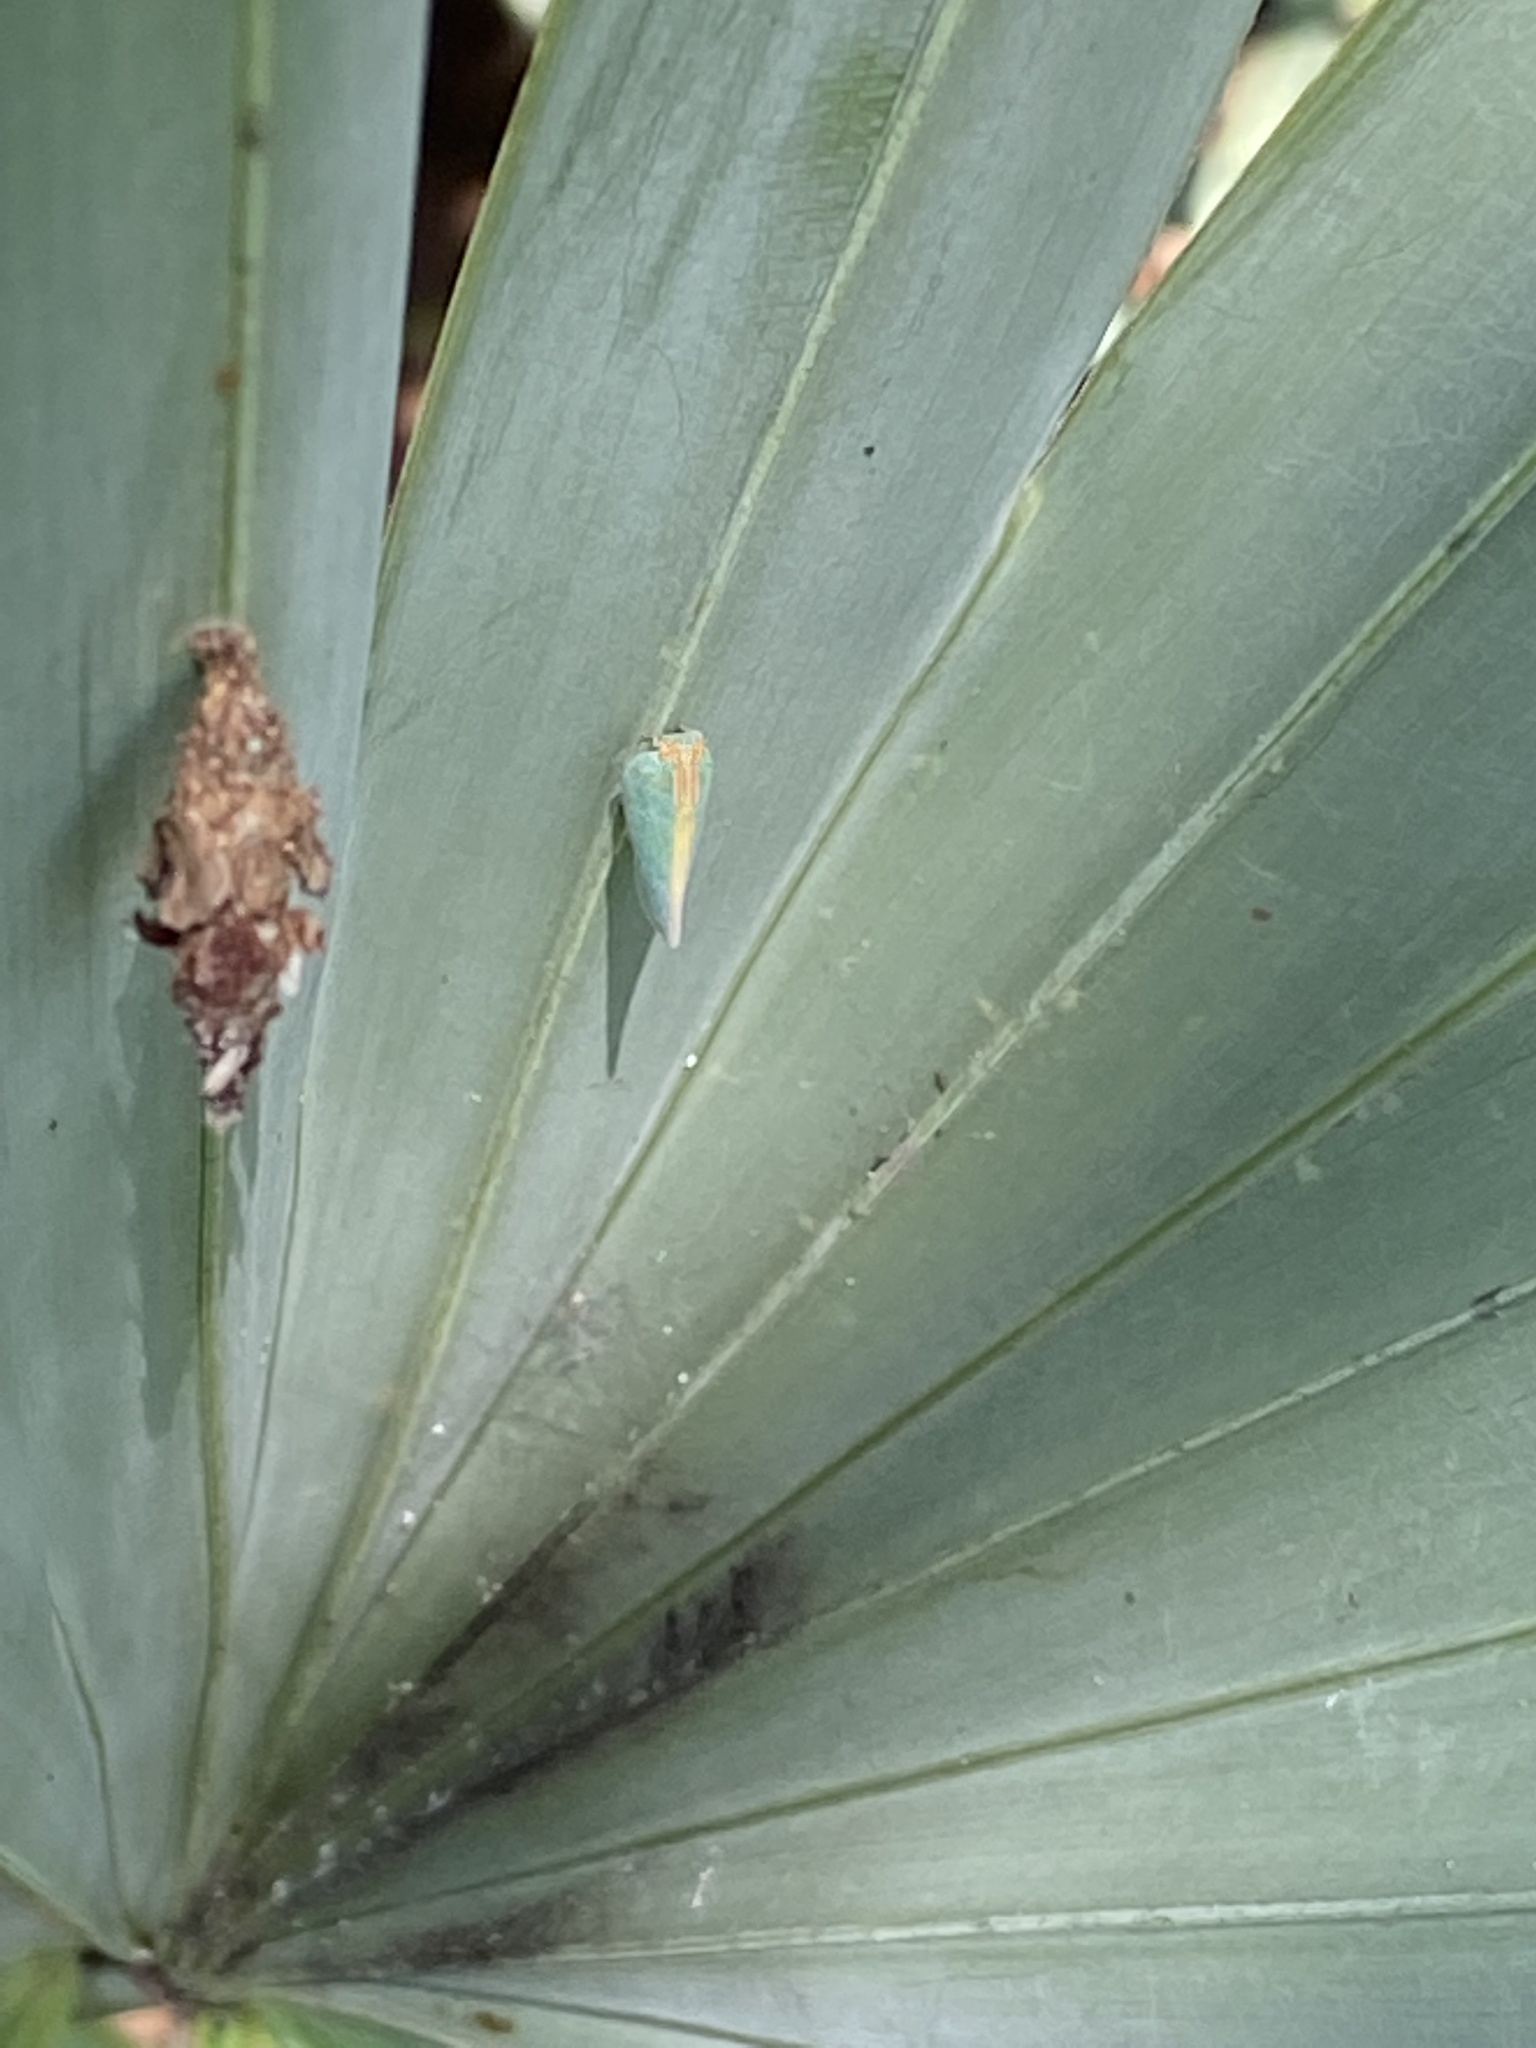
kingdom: Animalia
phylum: Arthropoda
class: Insecta
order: Hemiptera
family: Flatidae
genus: Ormenaria
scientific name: Ormenaria rufifascia
